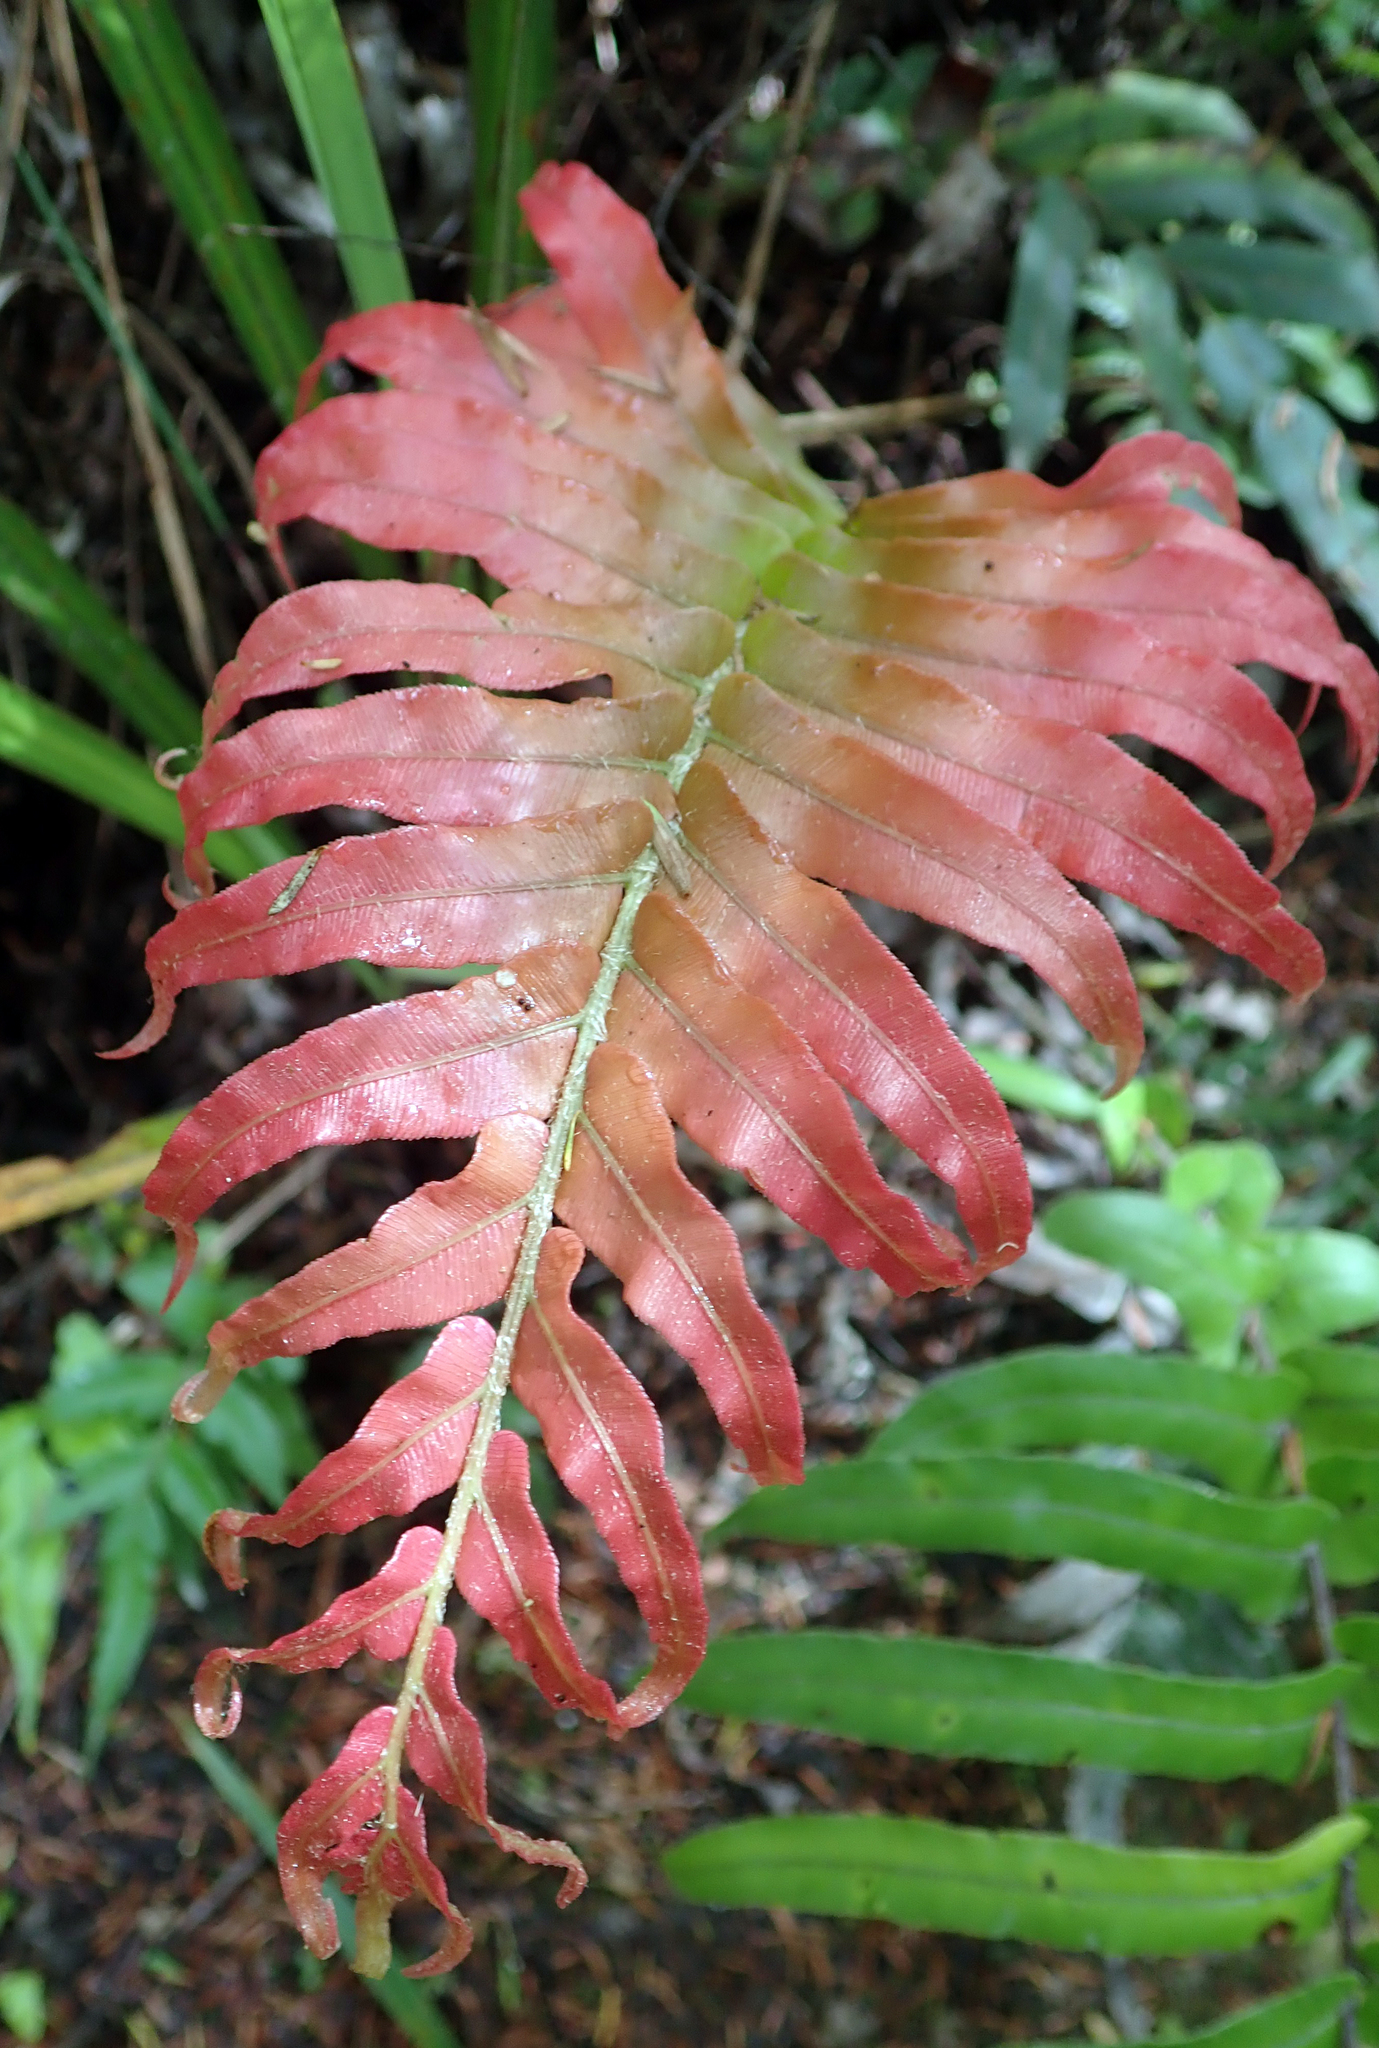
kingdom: Plantae
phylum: Tracheophyta
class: Polypodiopsida
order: Polypodiales
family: Blechnaceae
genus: Parablechnum
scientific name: Parablechnum novae-zelandiae
